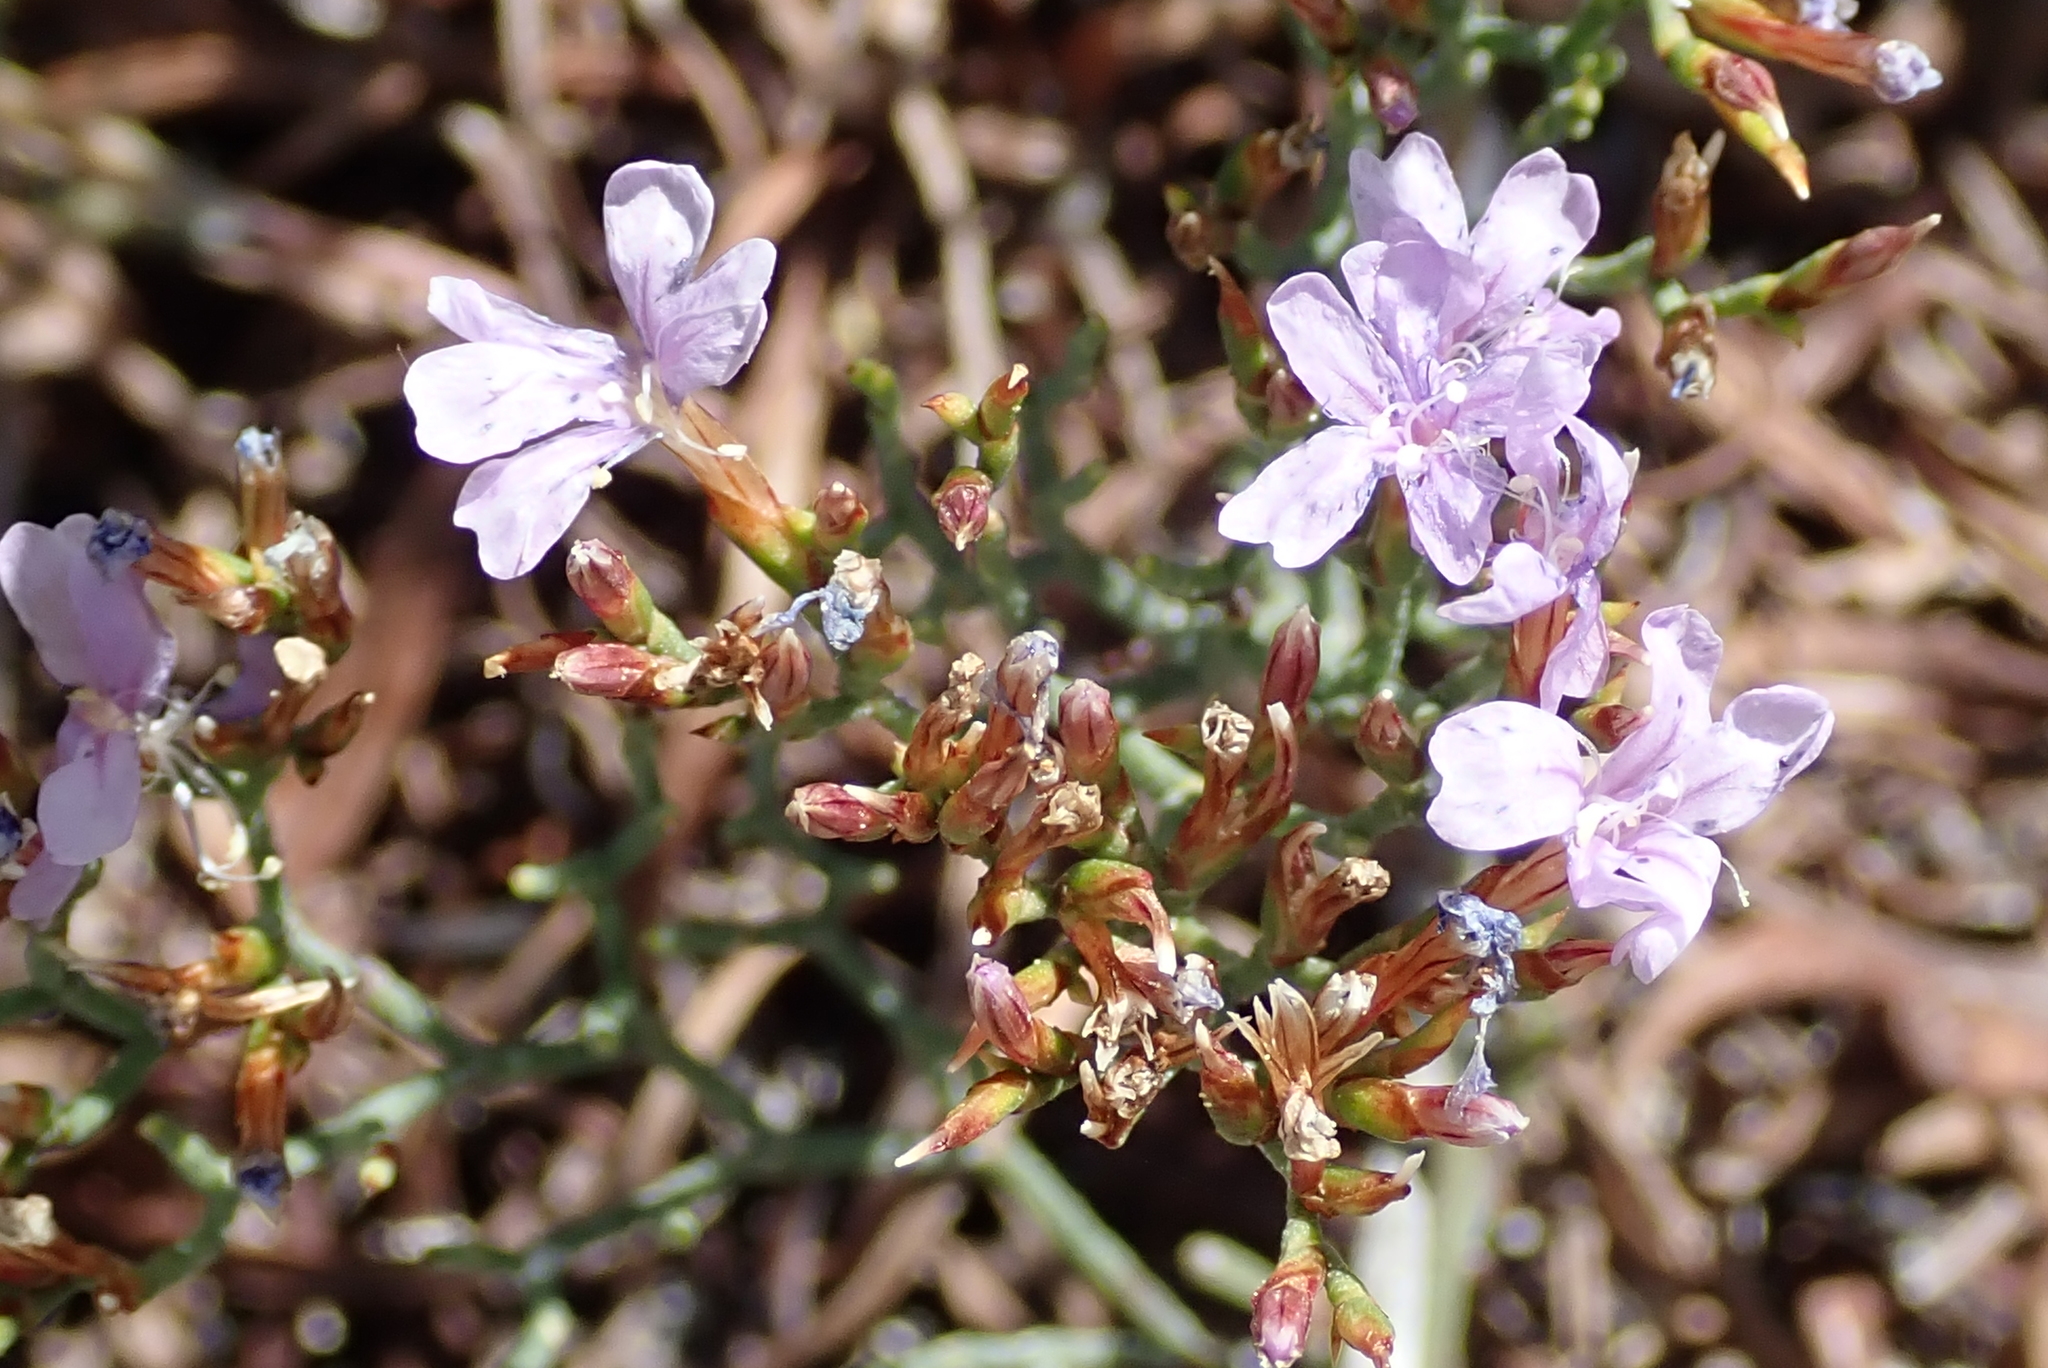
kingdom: Plantae
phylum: Tracheophyta
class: Magnoliopsida
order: Caryophyllales
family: Plumbaginaceae
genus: Limonium
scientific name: Limonium scabrum
